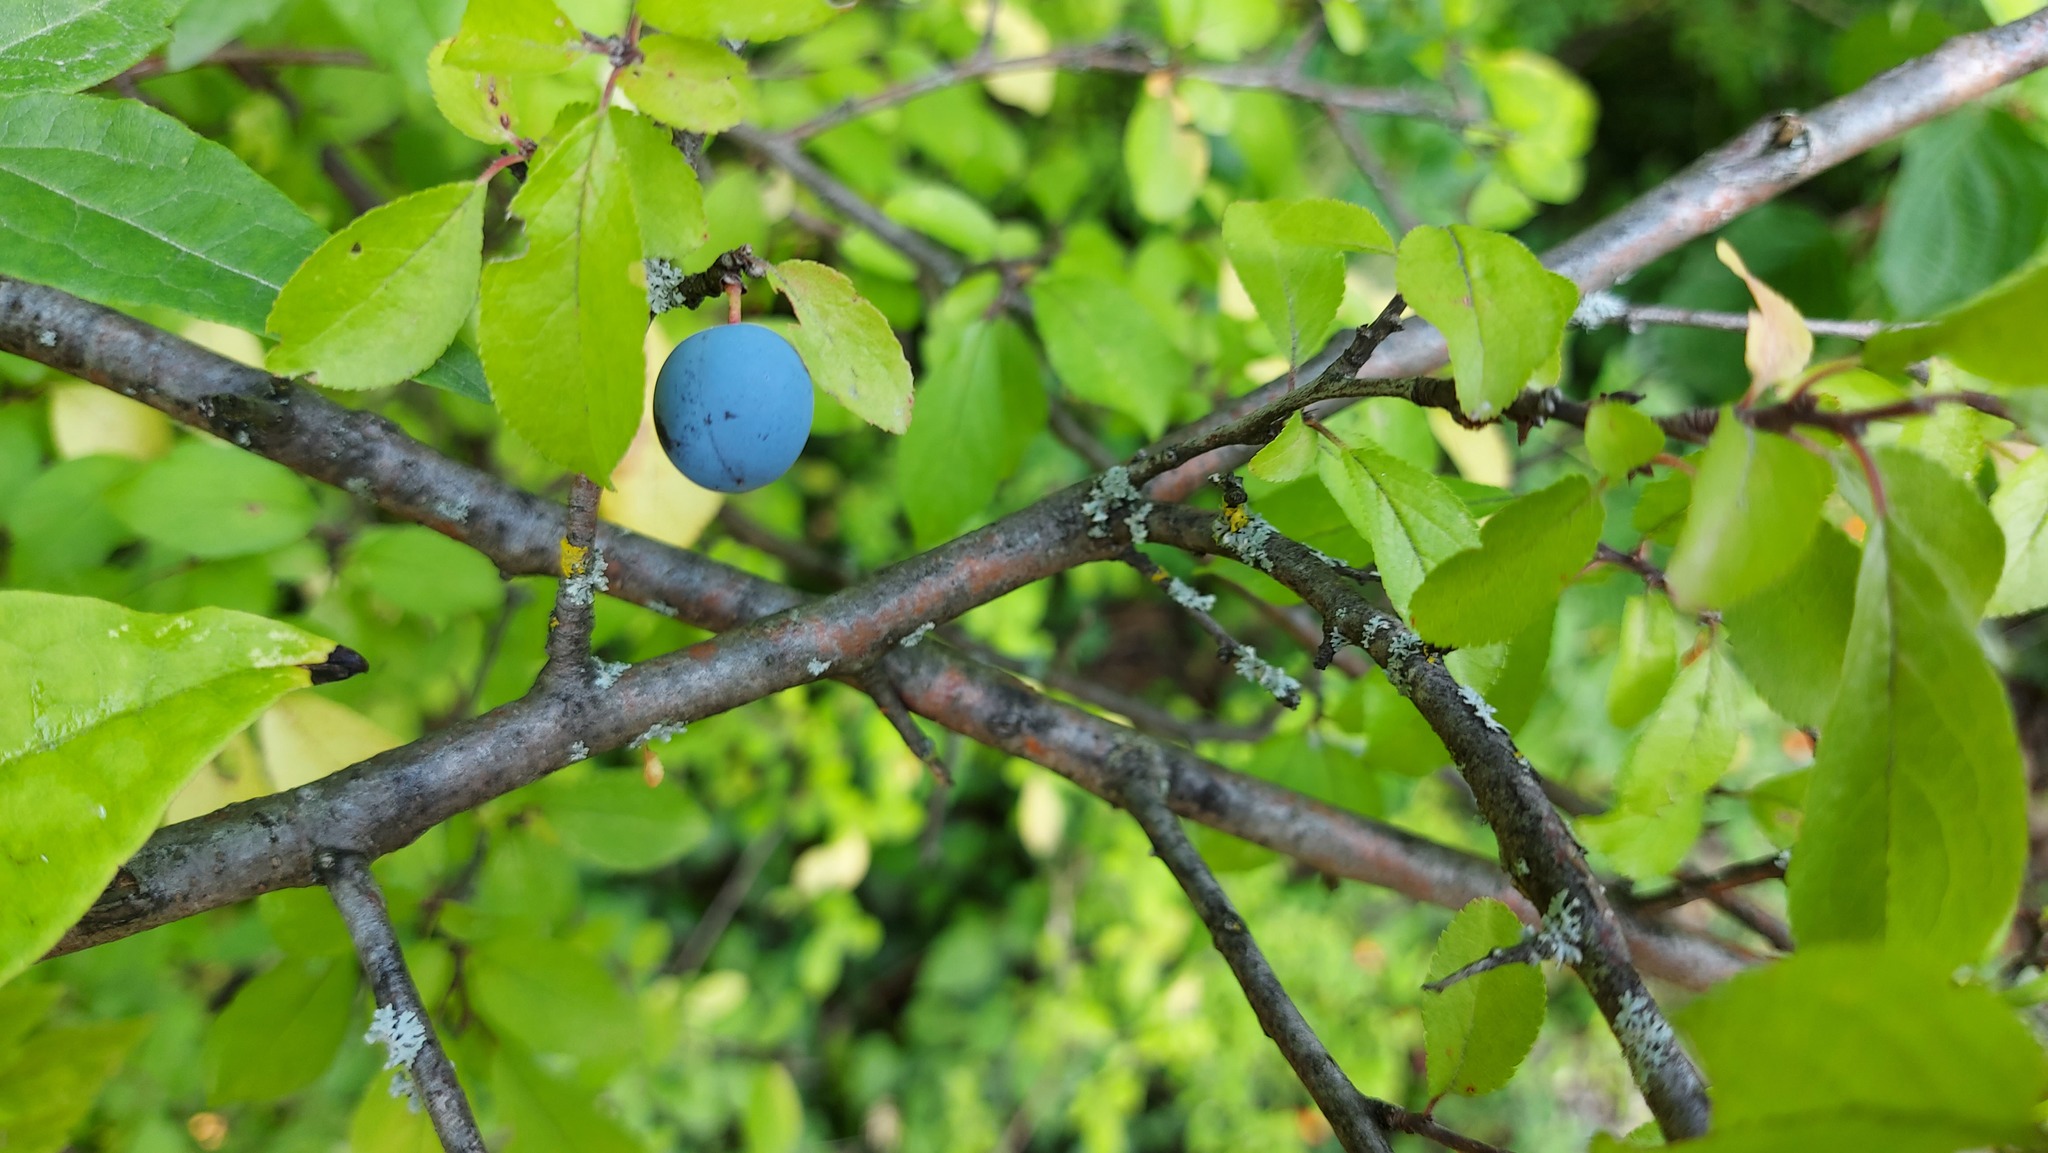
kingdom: Plantae
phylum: Tracheophyta
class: Magnoliopsida
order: Rosales
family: Rosaceae
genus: Prunus
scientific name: Prunus spinosa
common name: Blackthorn
